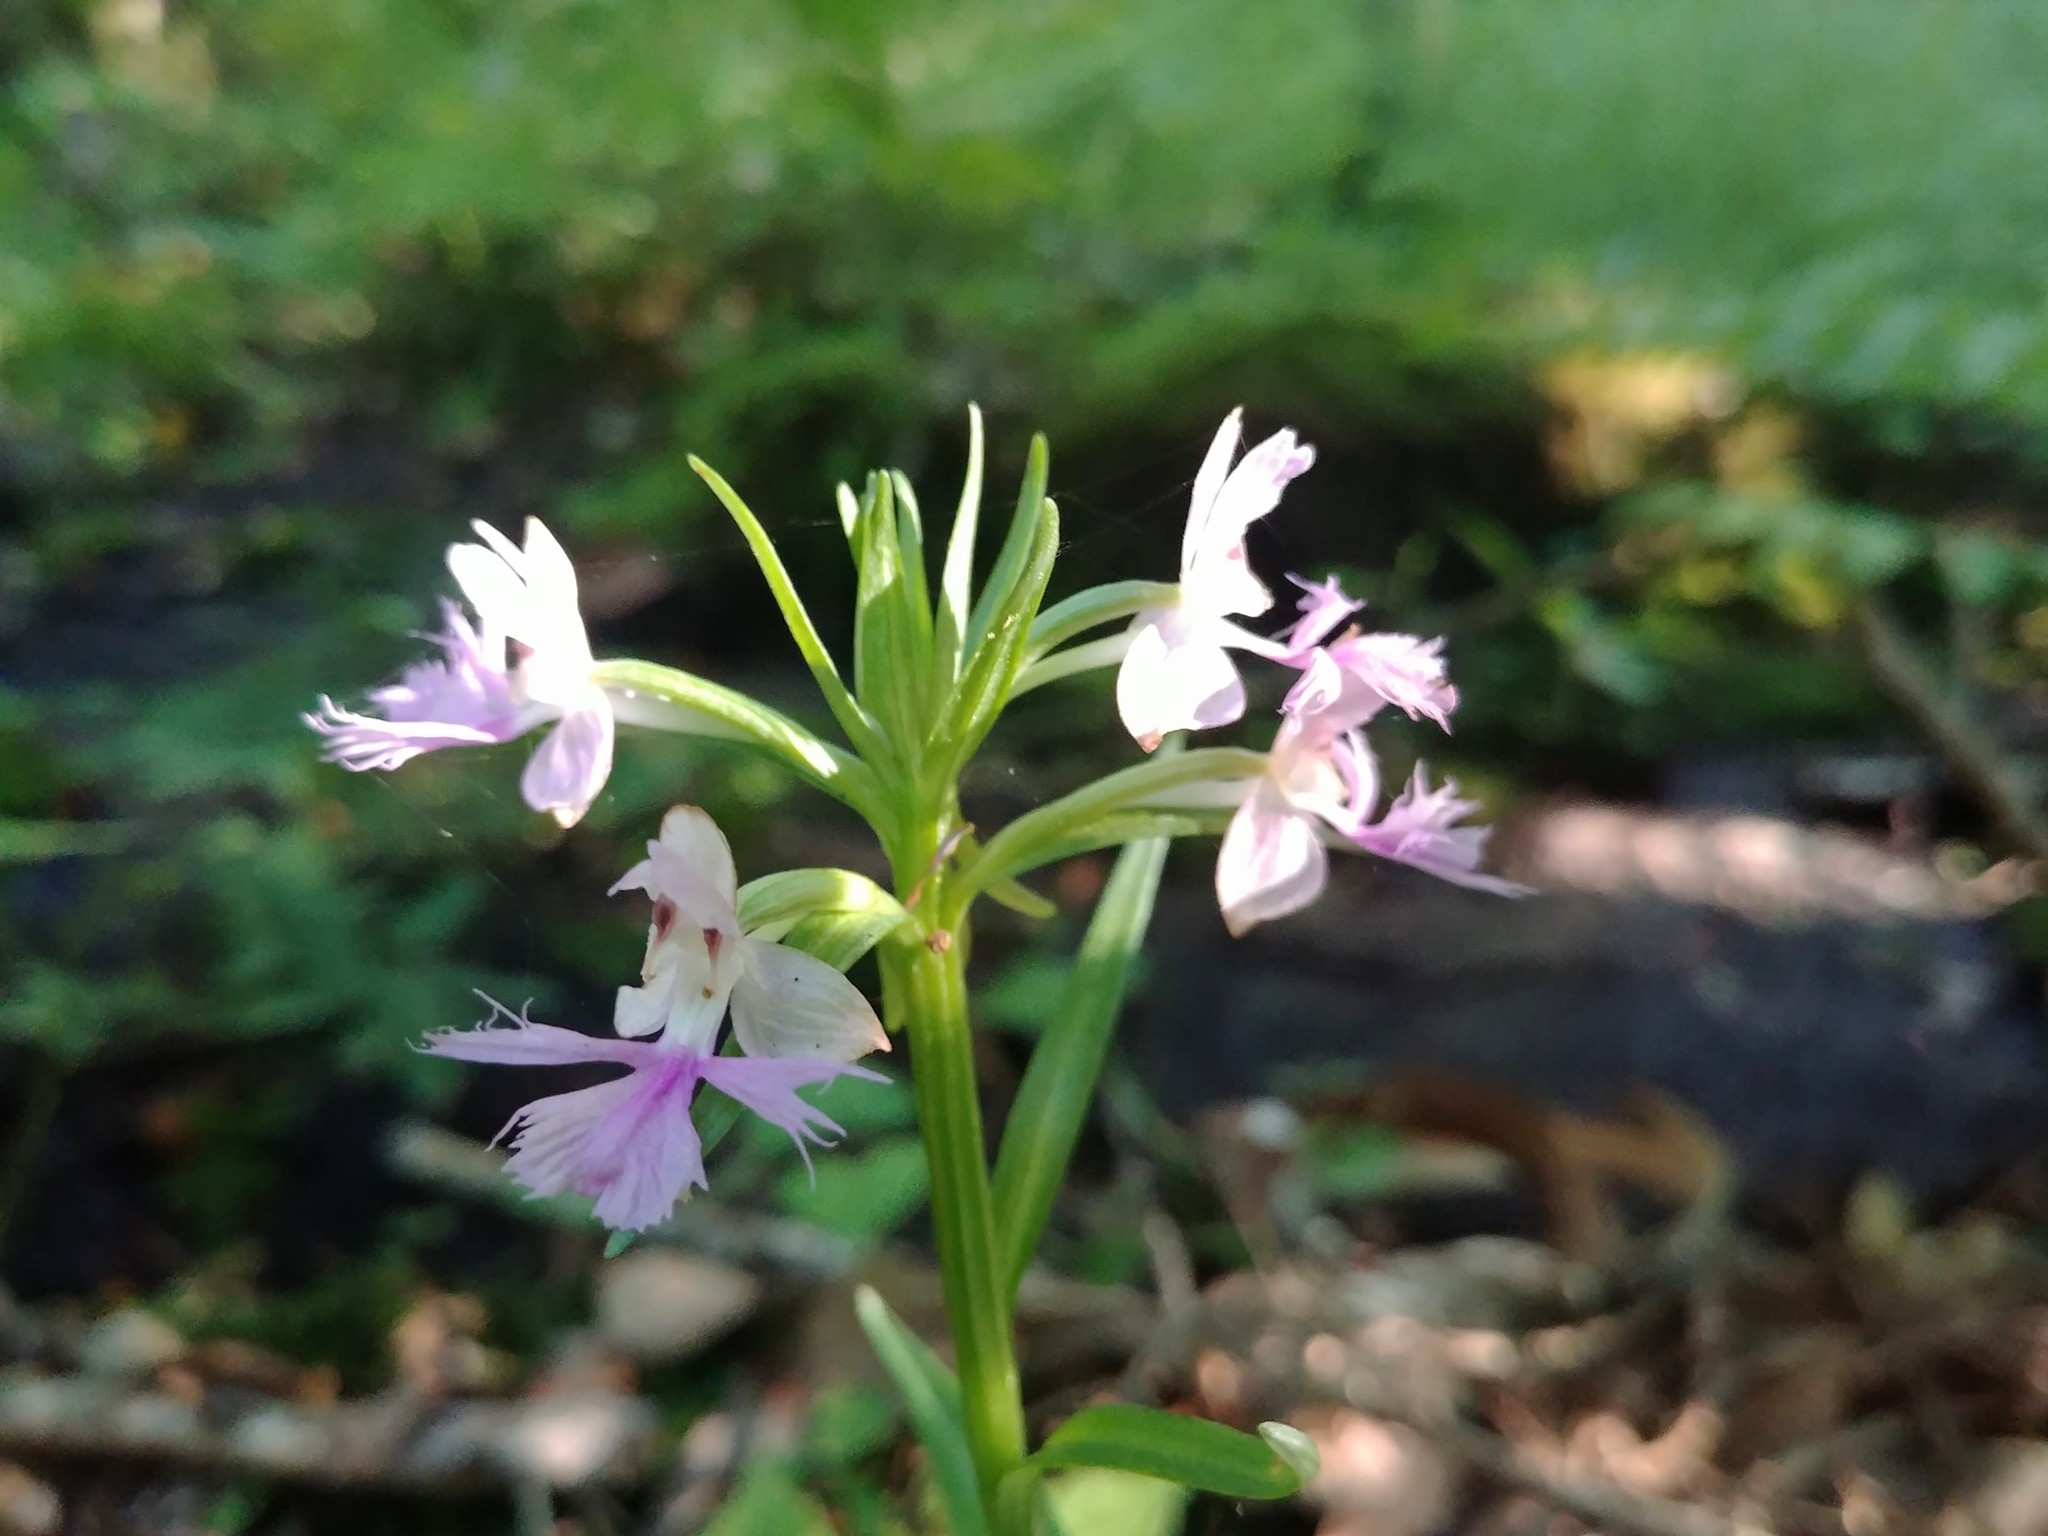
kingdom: Plantae
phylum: Tracheophyta
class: Liliopsida
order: Asparagales
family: Orchidaceae
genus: Platanthera
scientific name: Platanthera grandiflora
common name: Greater purple fringed orchid
